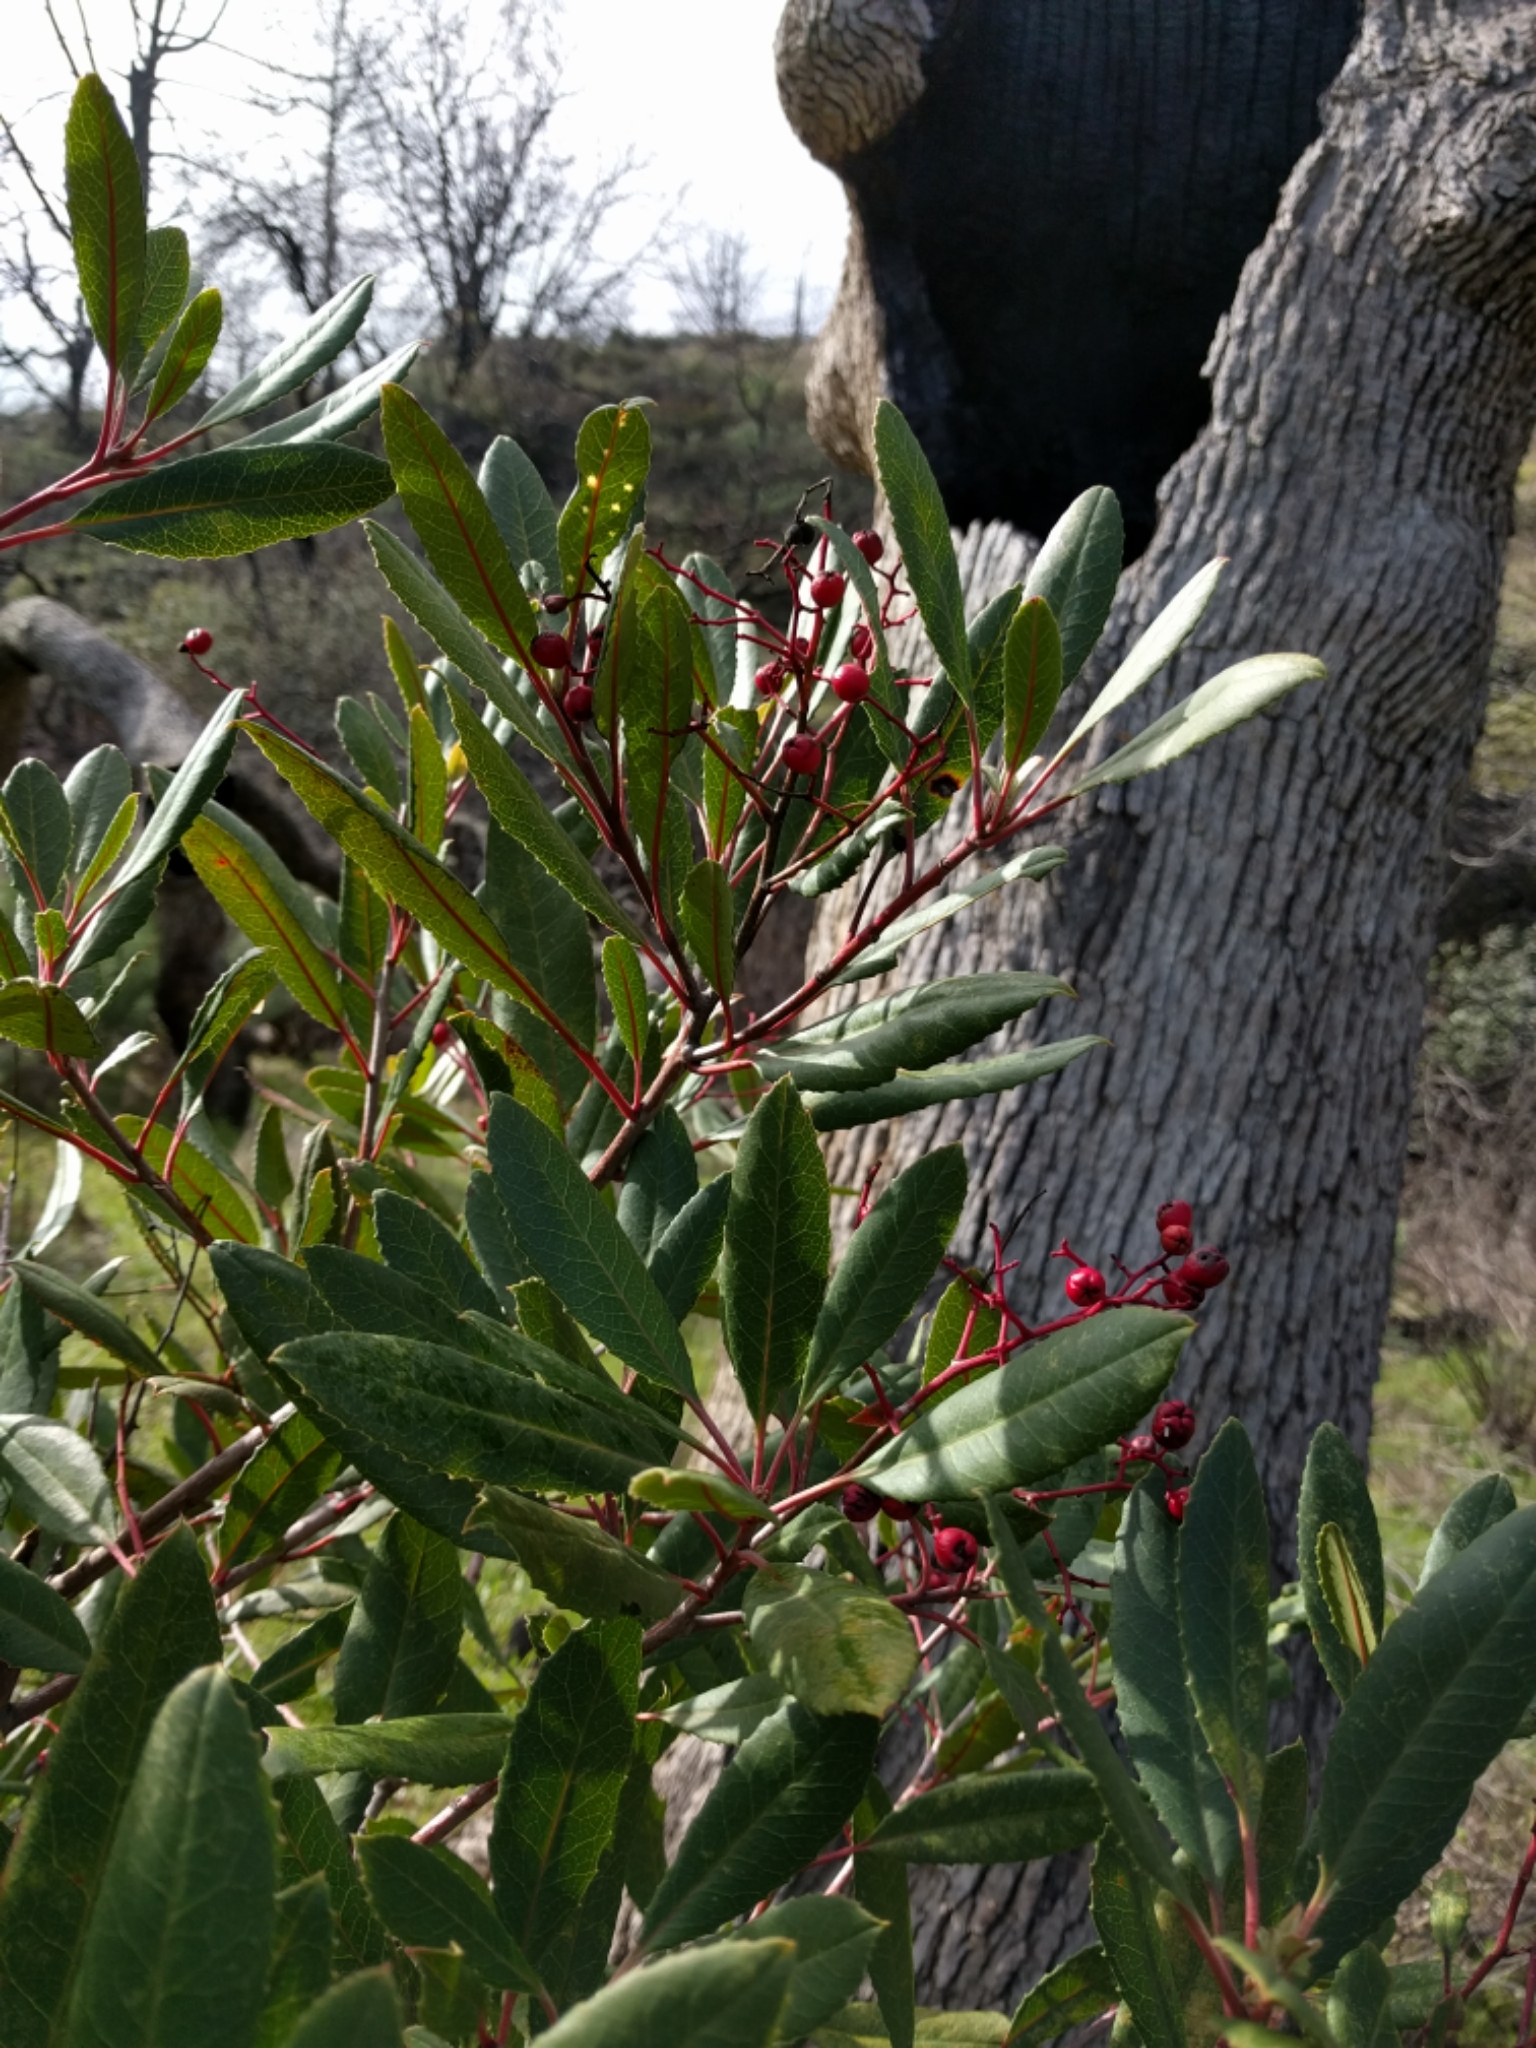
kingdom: Plantae
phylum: Tracheophyta
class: Magnoliopsida
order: Rosales
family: Rosaceae
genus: Heteromeles
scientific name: Heteromeles arbutifolia
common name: California-holly
